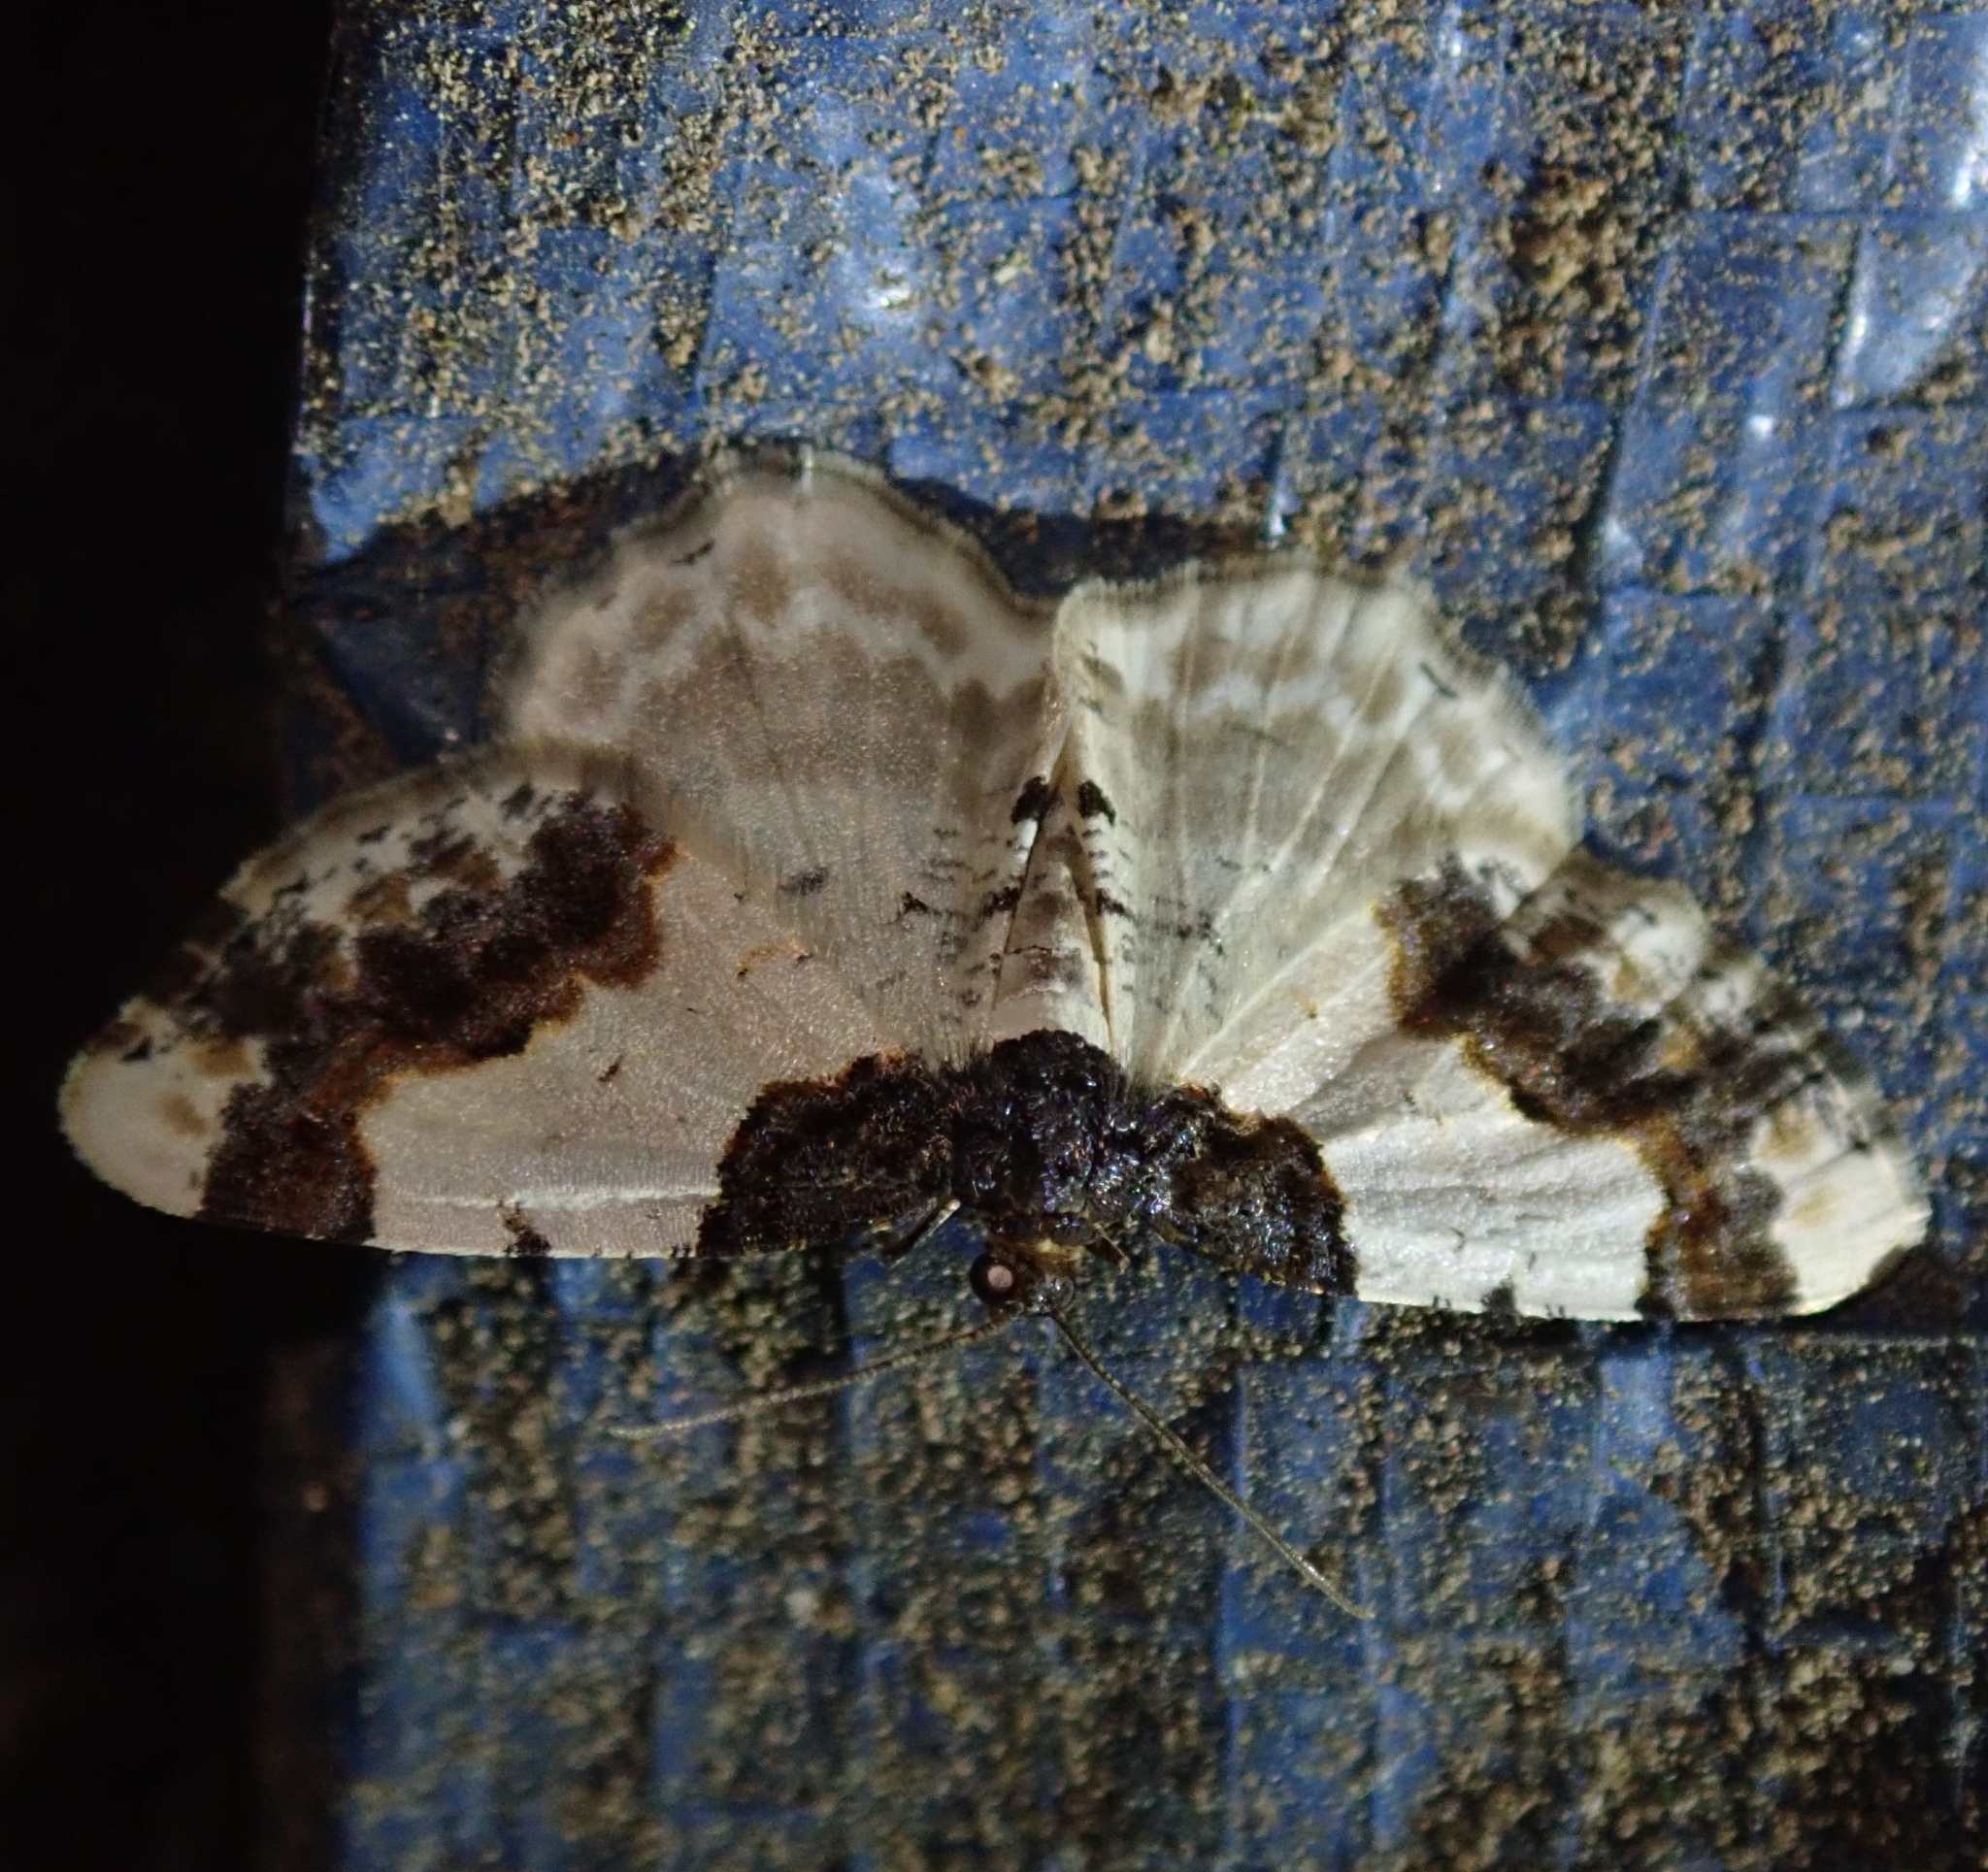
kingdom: Animalia
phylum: Arthropoda
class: Insecta
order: Lepidoptera
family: Geometridae
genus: Ligdia
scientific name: Ligdia adustata
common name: Scorched carpet
